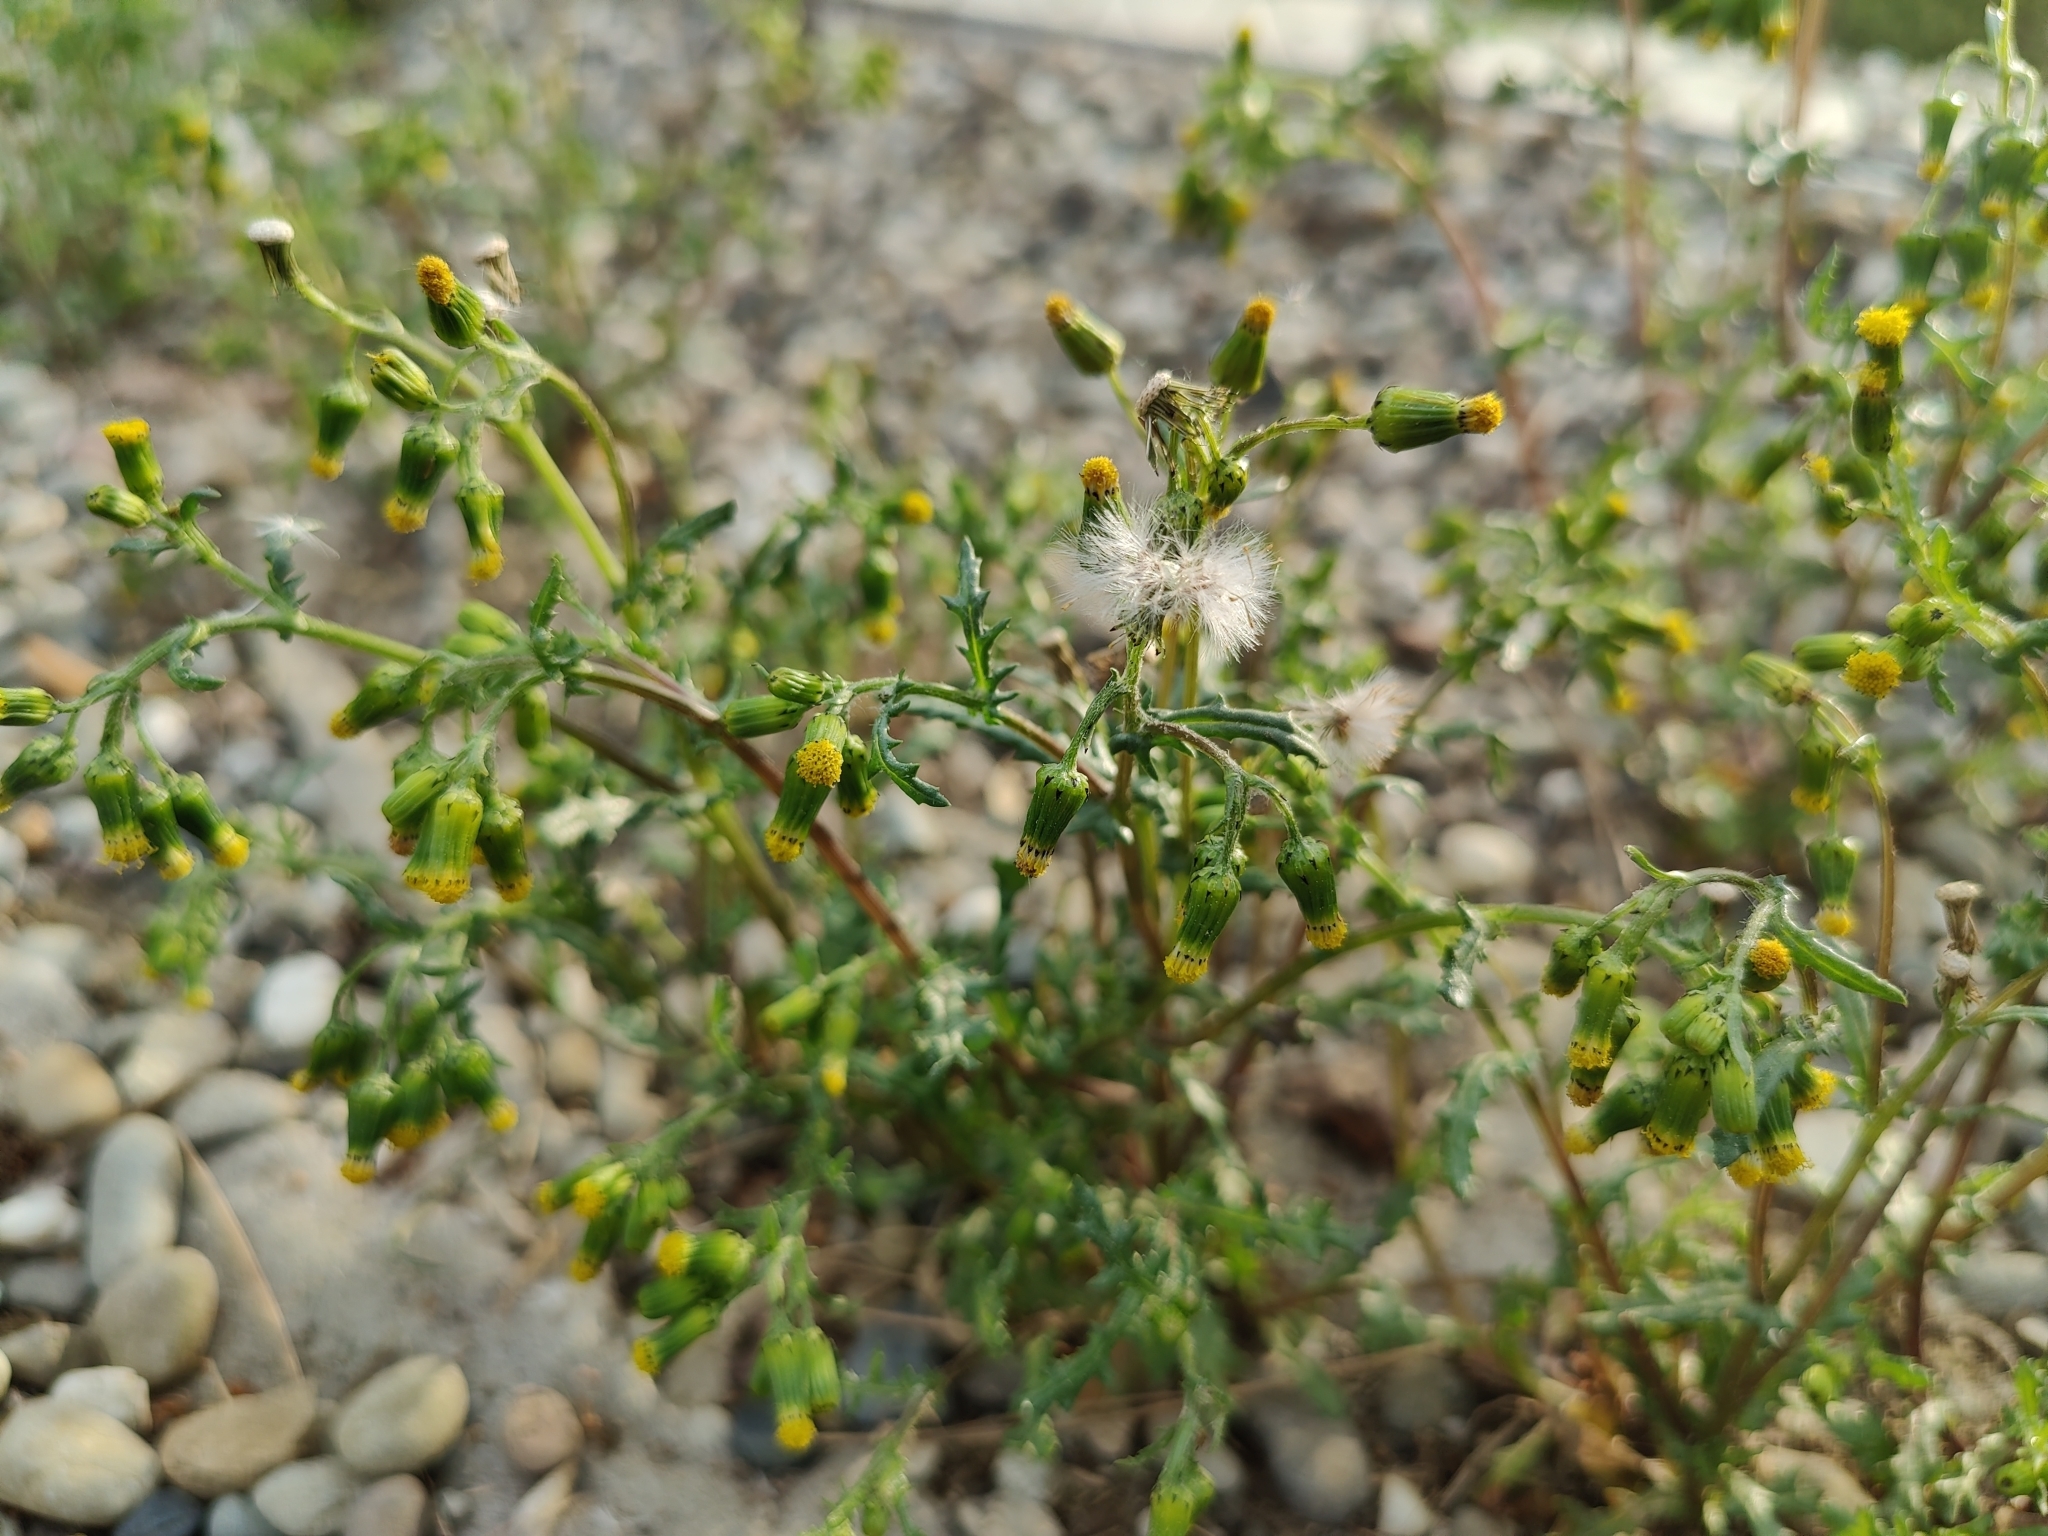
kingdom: Plantae
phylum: Tracheophyta
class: Magnoliopsida
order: Asterales
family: Asteraceae
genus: Senecio
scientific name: Senecio vulgaris
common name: Old-man-in-the-spring
